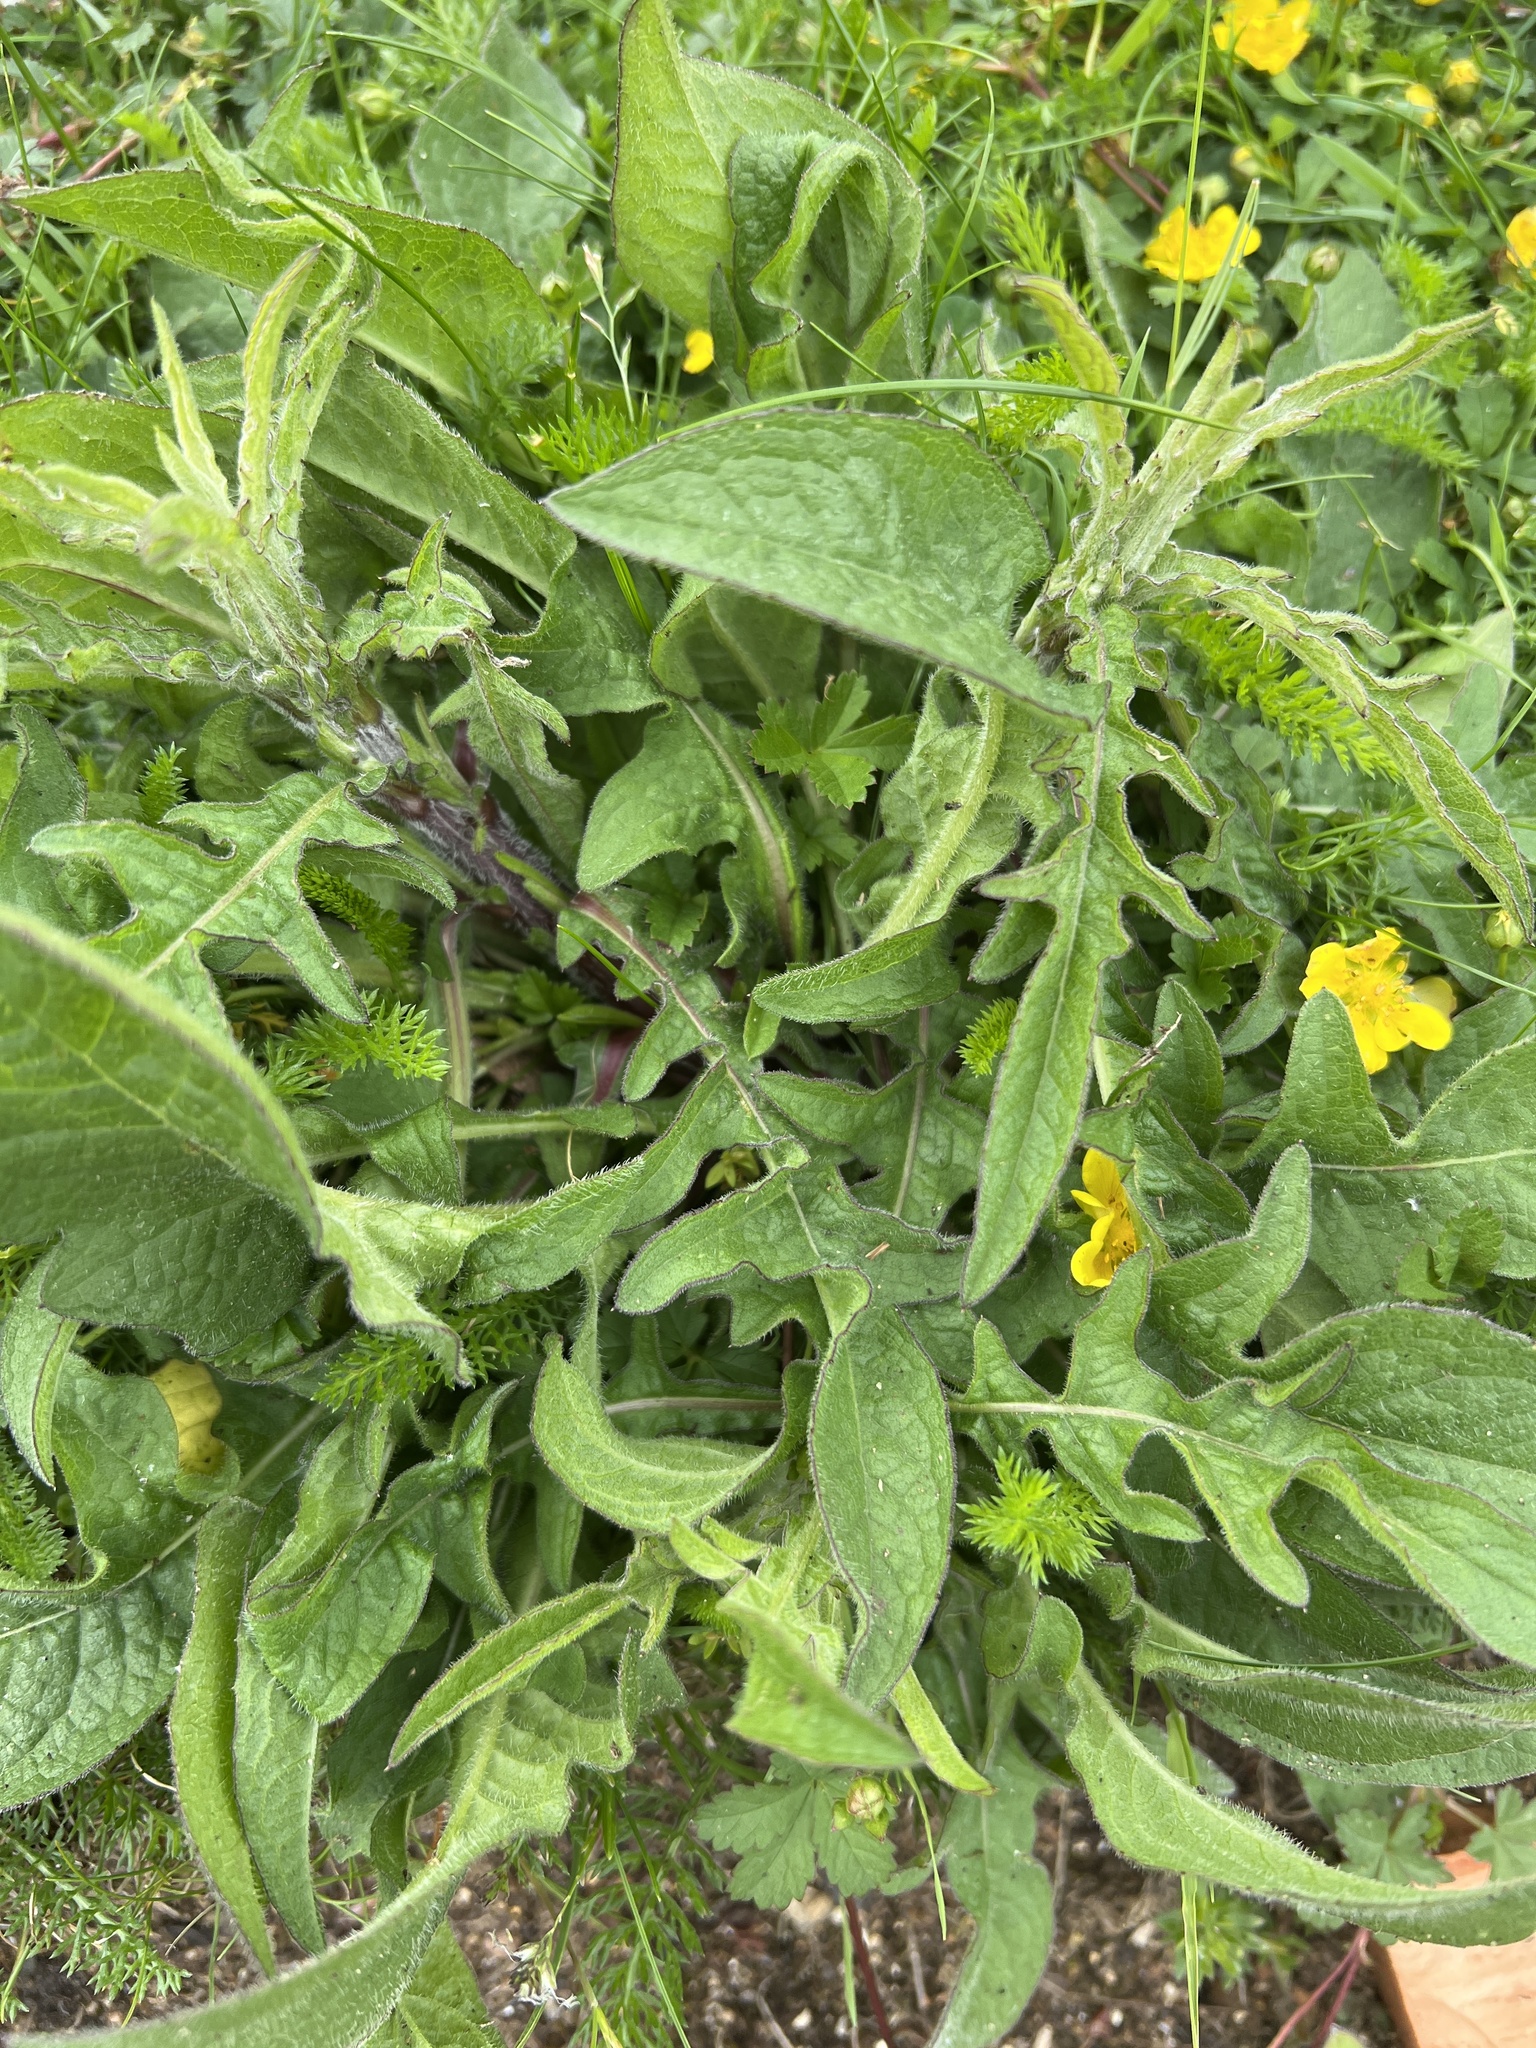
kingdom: Plantae
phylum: Tracheophyta
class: Magnoliopsida
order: Asterales
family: Asteraceae
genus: Centaurea
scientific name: Centaurea nigra
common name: Lesser knapweed
